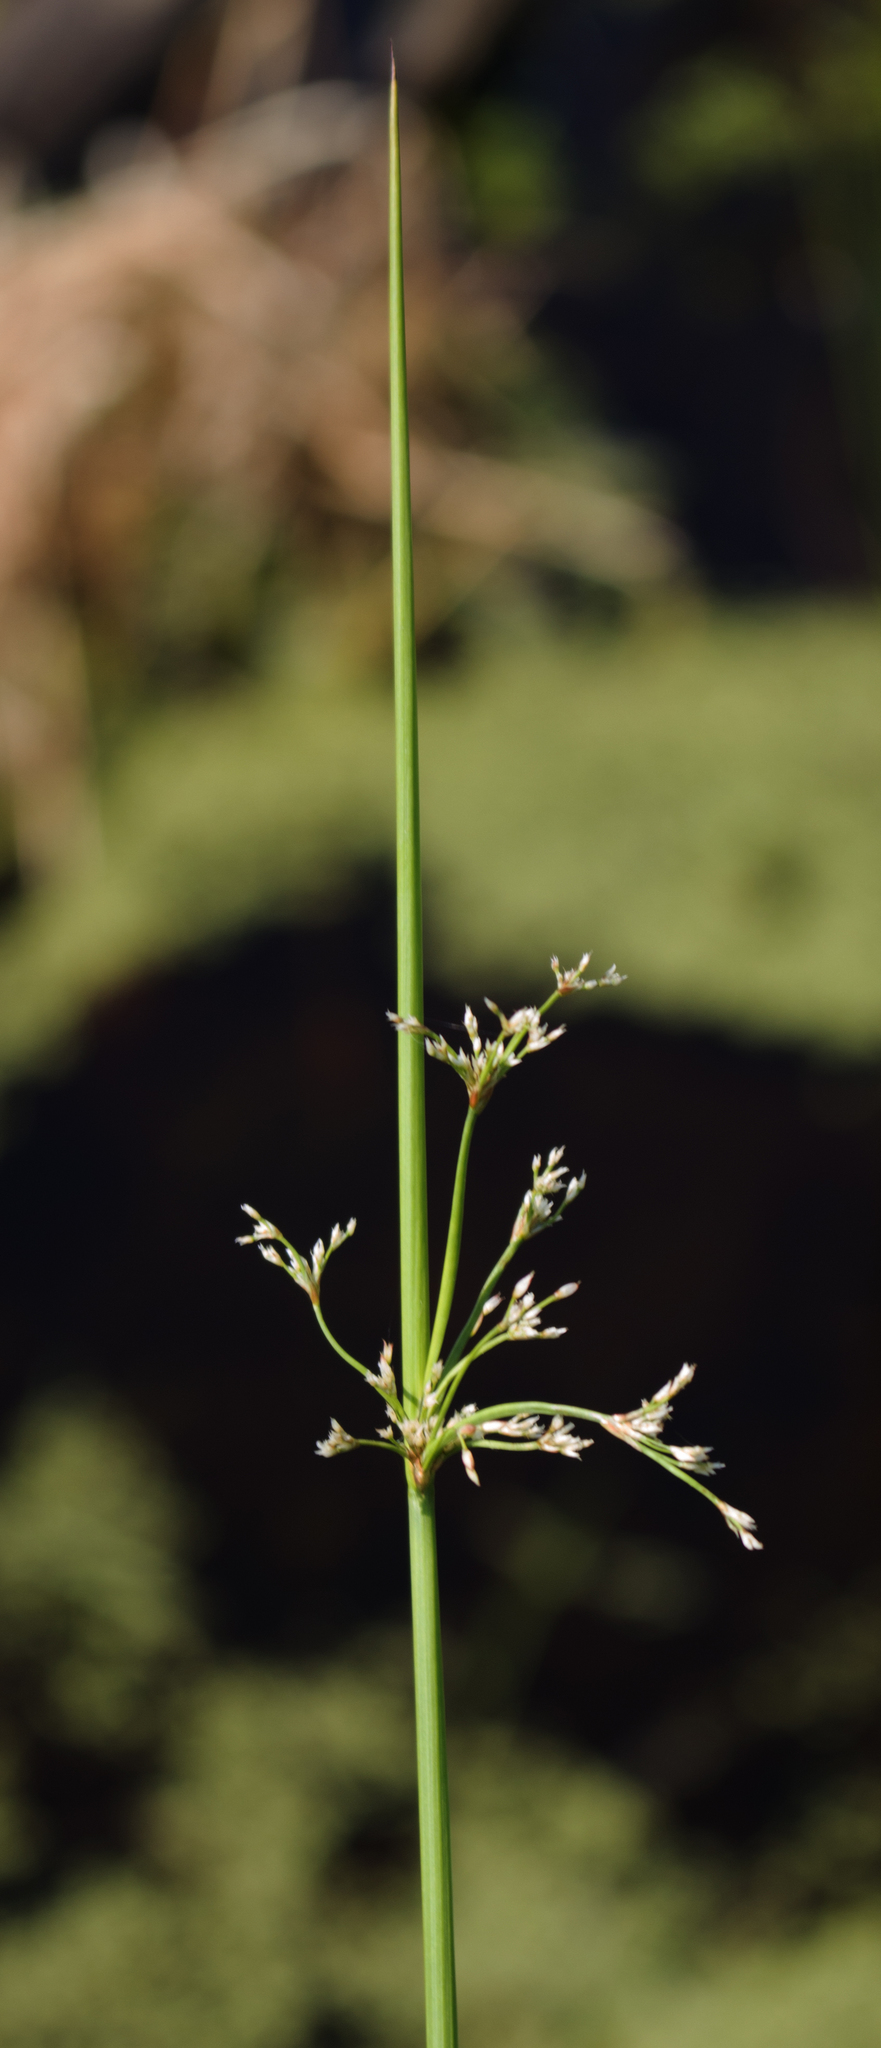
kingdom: Plantae
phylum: Tracheophyta
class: Liliopsida
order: Poales
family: Juncaceae
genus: Juncus
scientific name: Juncus effusus
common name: Soft rush
